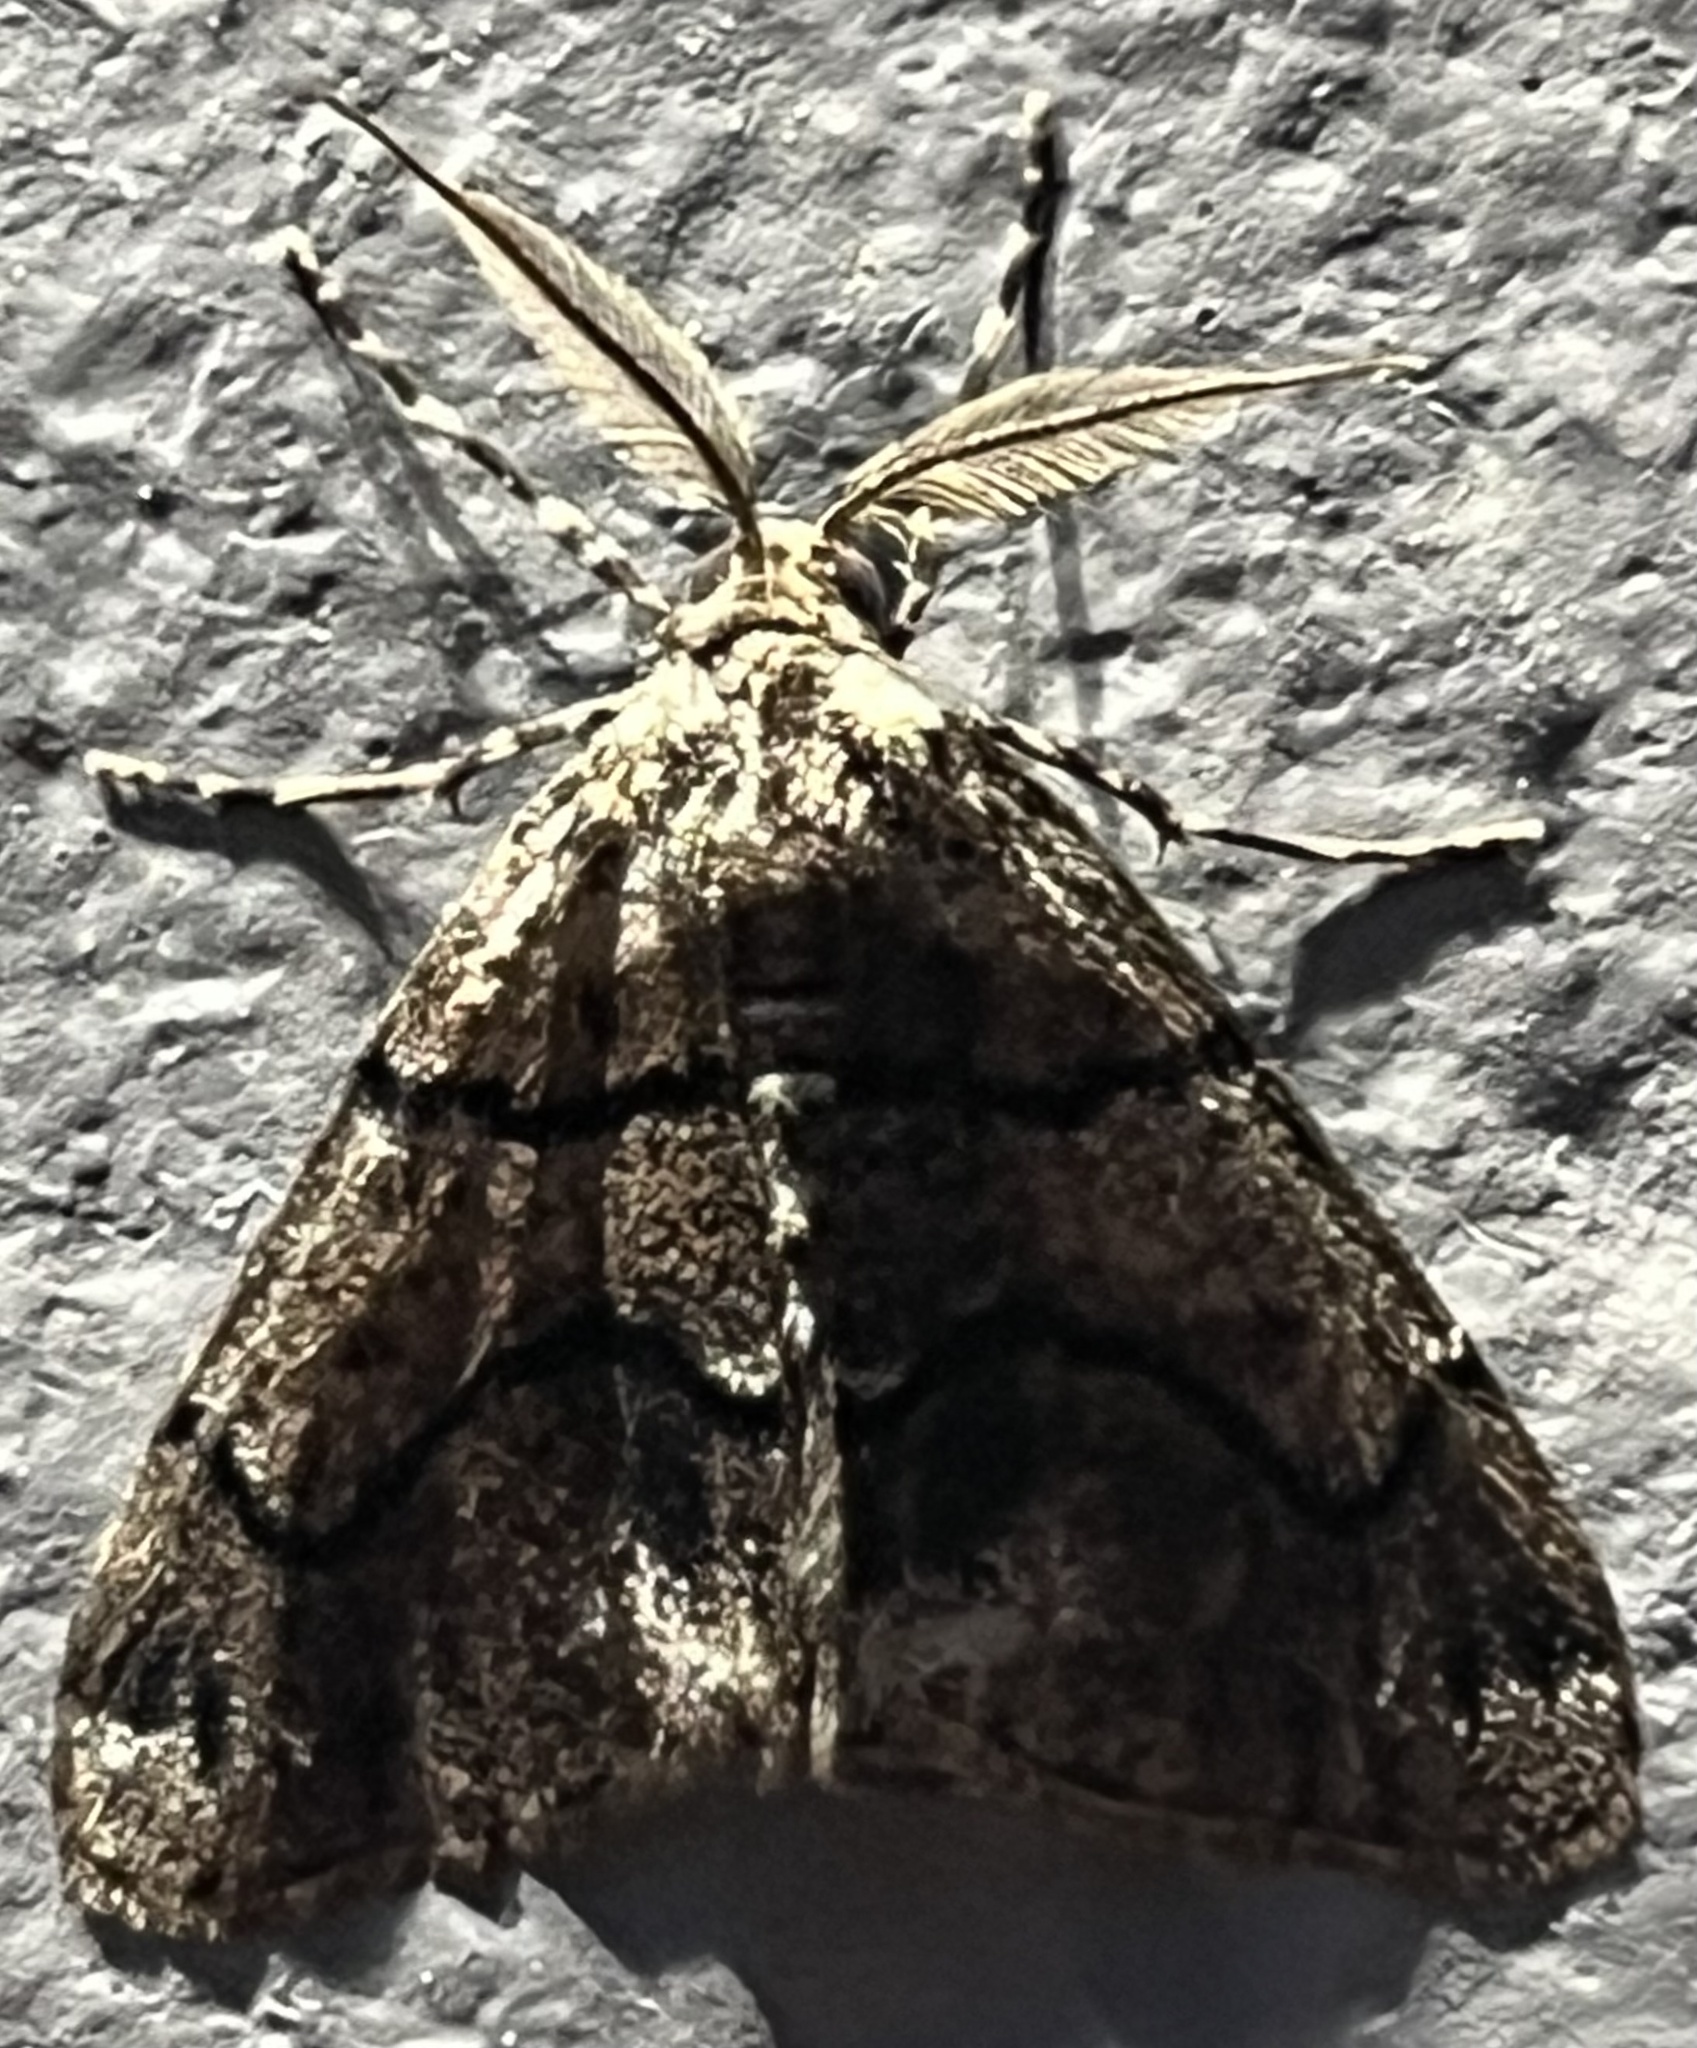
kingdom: Animalia
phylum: Arthropoda
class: Insecta
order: Lepidoptera
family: Geometridae
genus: Gabriola
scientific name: Gabriola dyari
